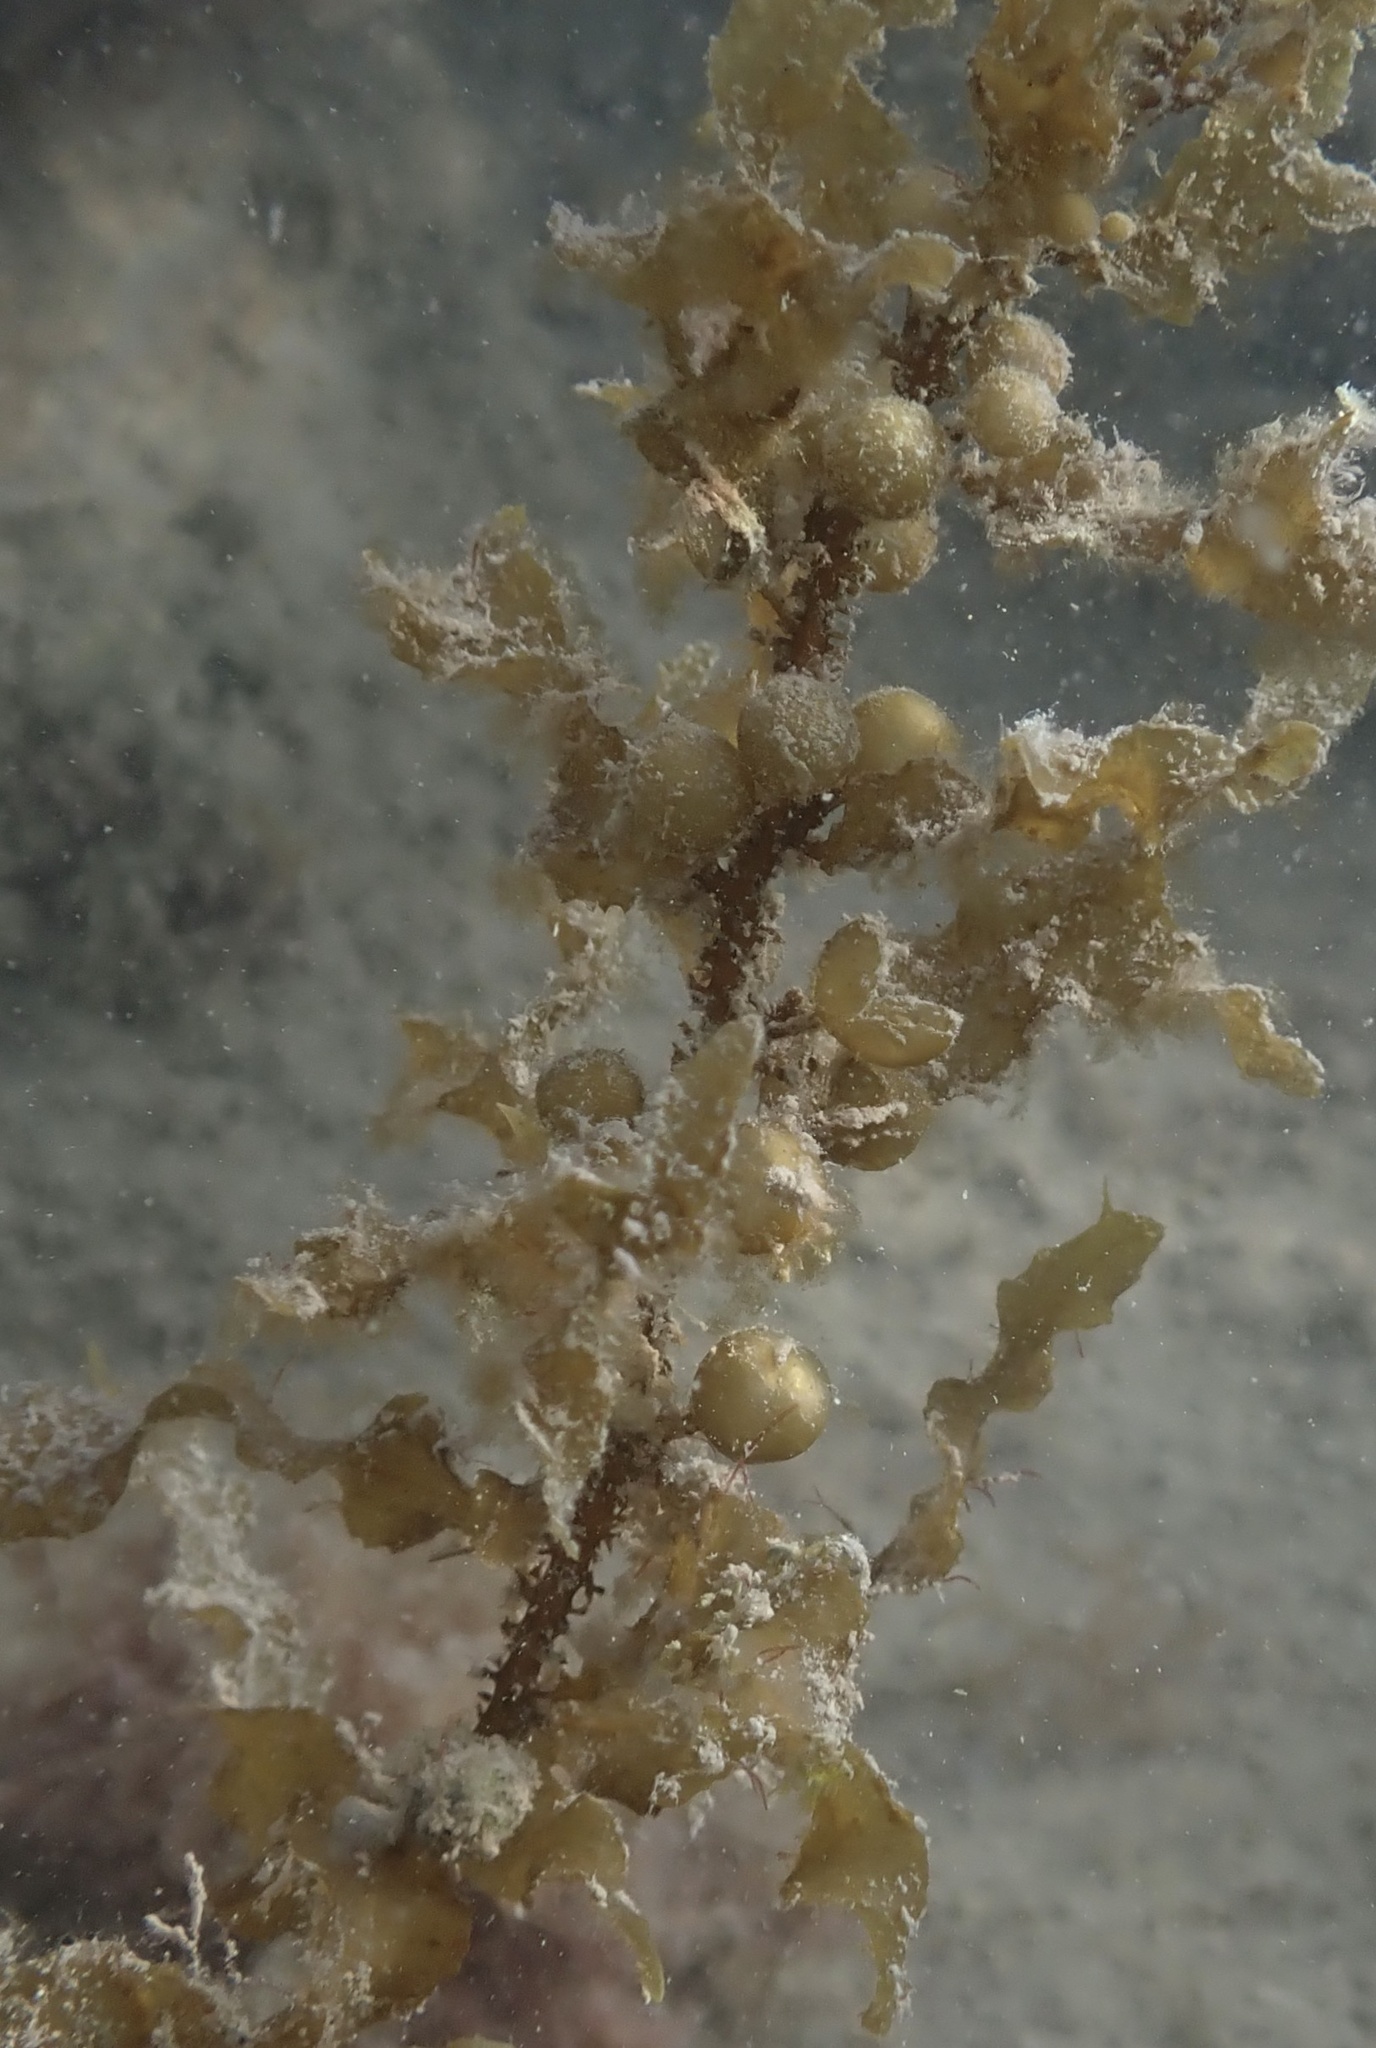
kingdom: Chromista
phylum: Ochrophyta
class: Phaeophyceae
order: Fucales
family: Sargassaceae
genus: Sargassum
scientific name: Sargassum bermudense
